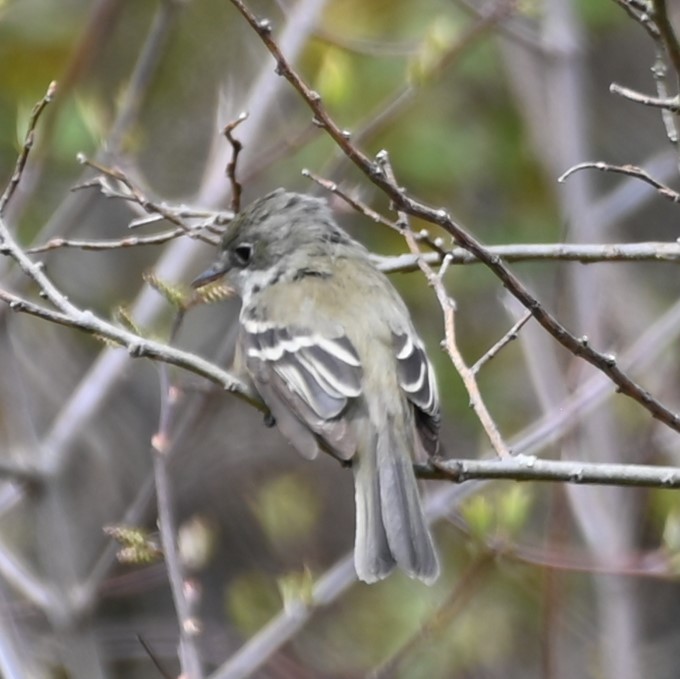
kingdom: Animalia
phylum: Chordata
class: Aves
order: Passeriformes
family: Tyrannidae
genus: Empidonax
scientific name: Empidonax minimus
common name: Least flycatcher
